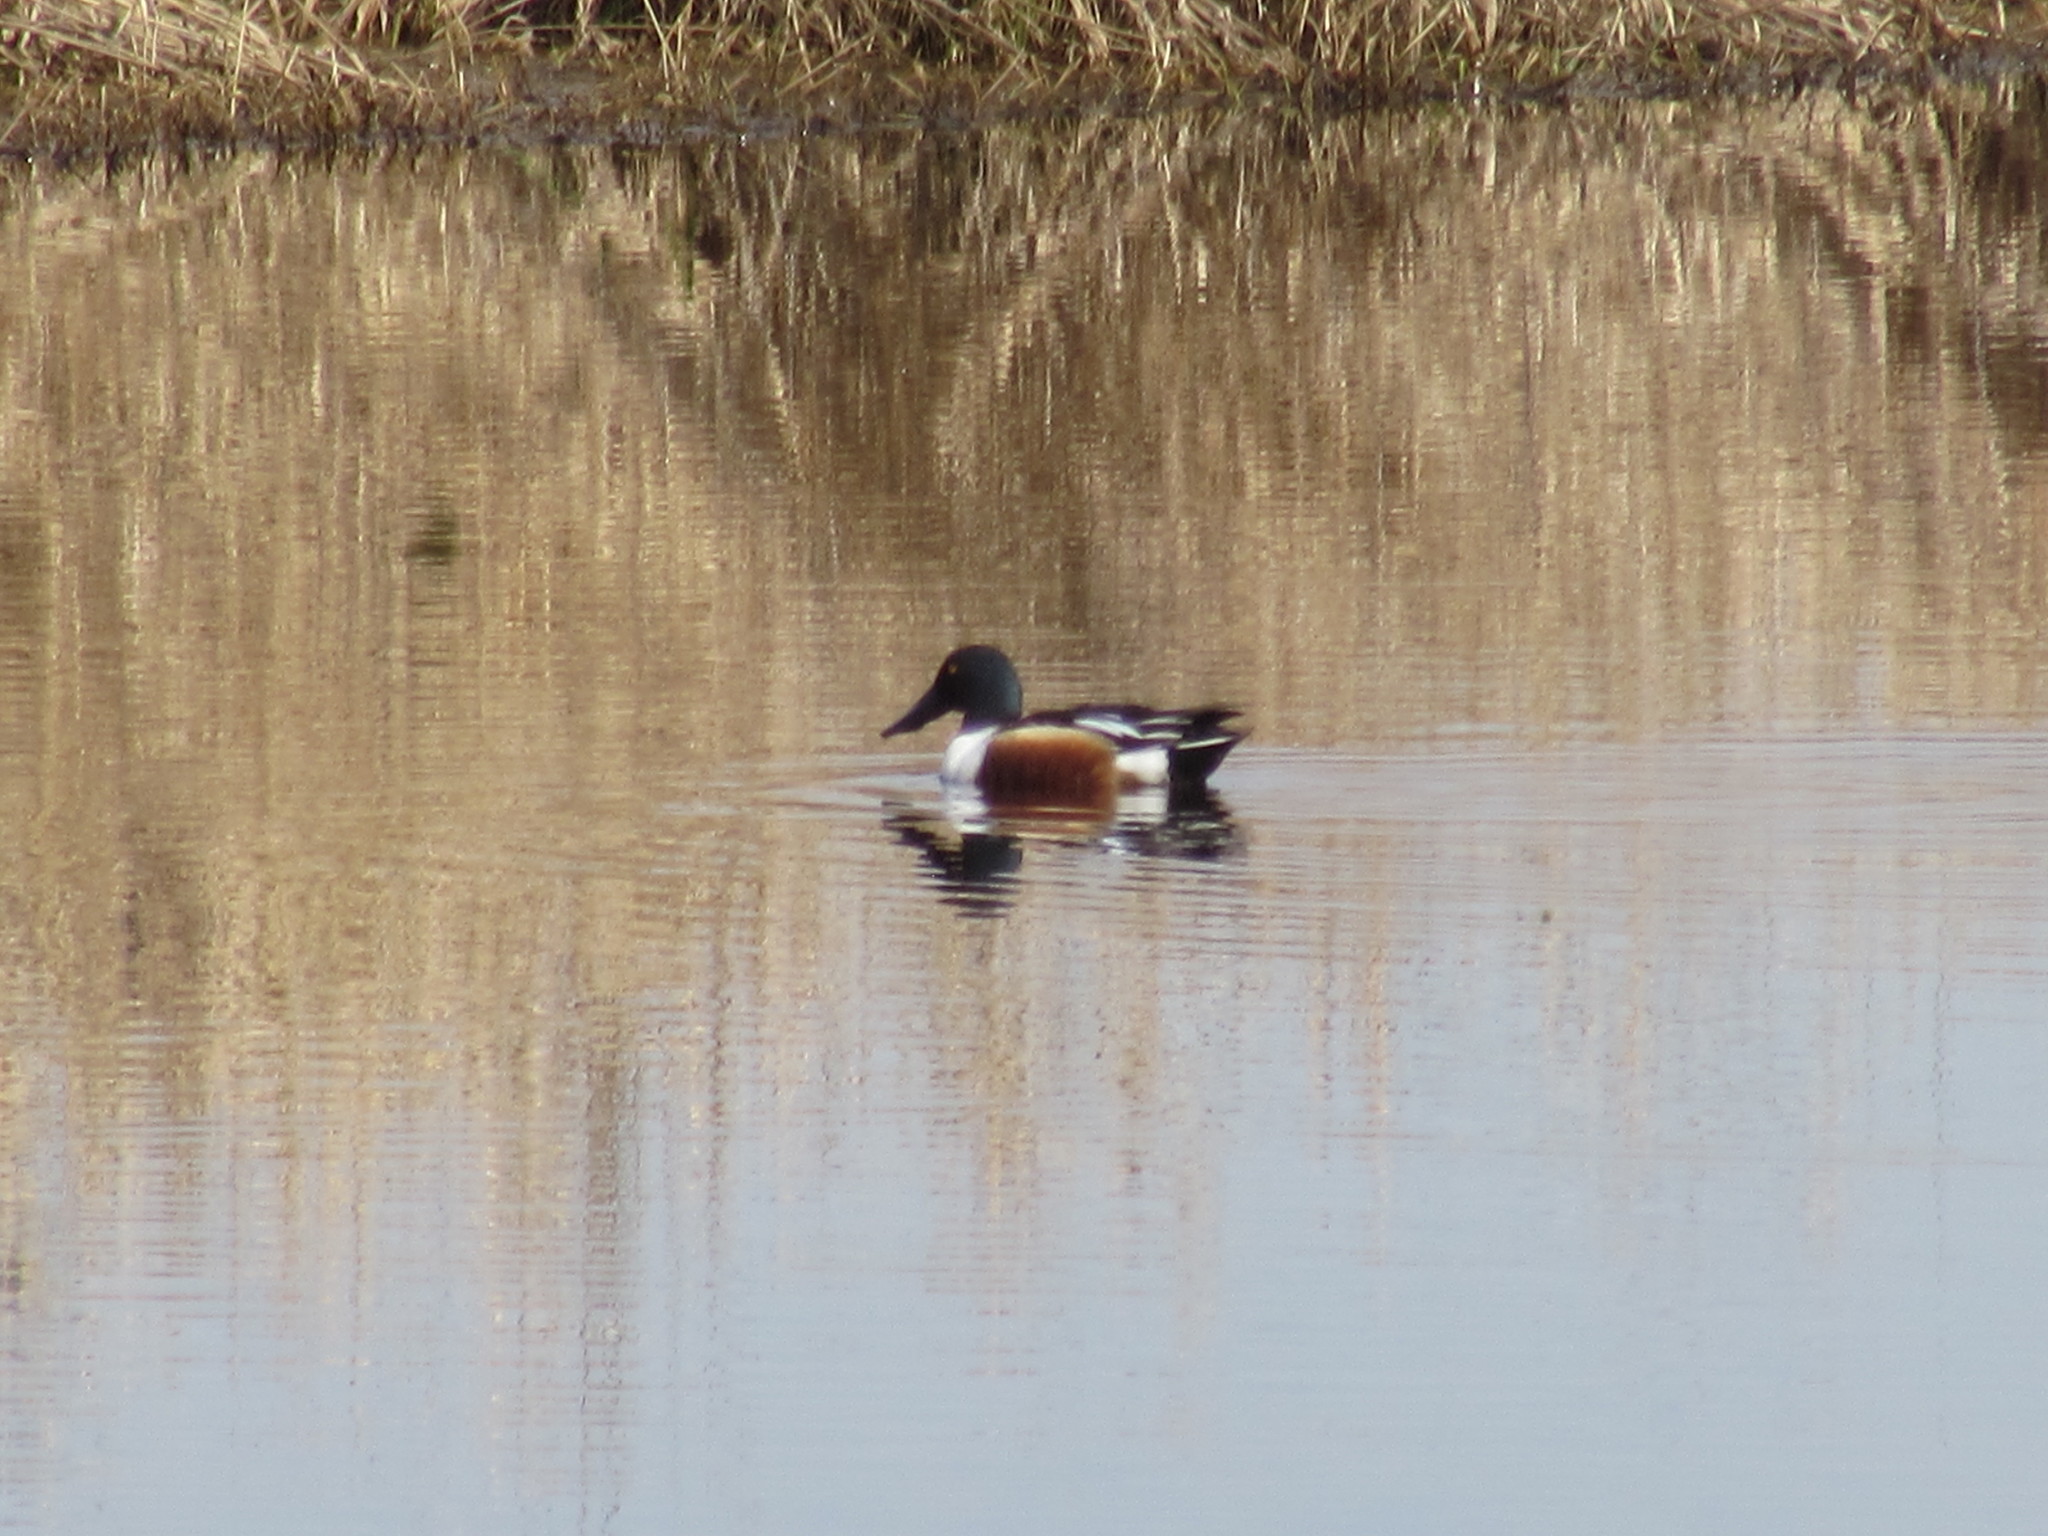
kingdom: Animalia
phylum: Chordata
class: Aves
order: Anseriformes
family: Anatidae
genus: Spatula
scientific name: Spatula clypeata
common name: Northern shoveler
